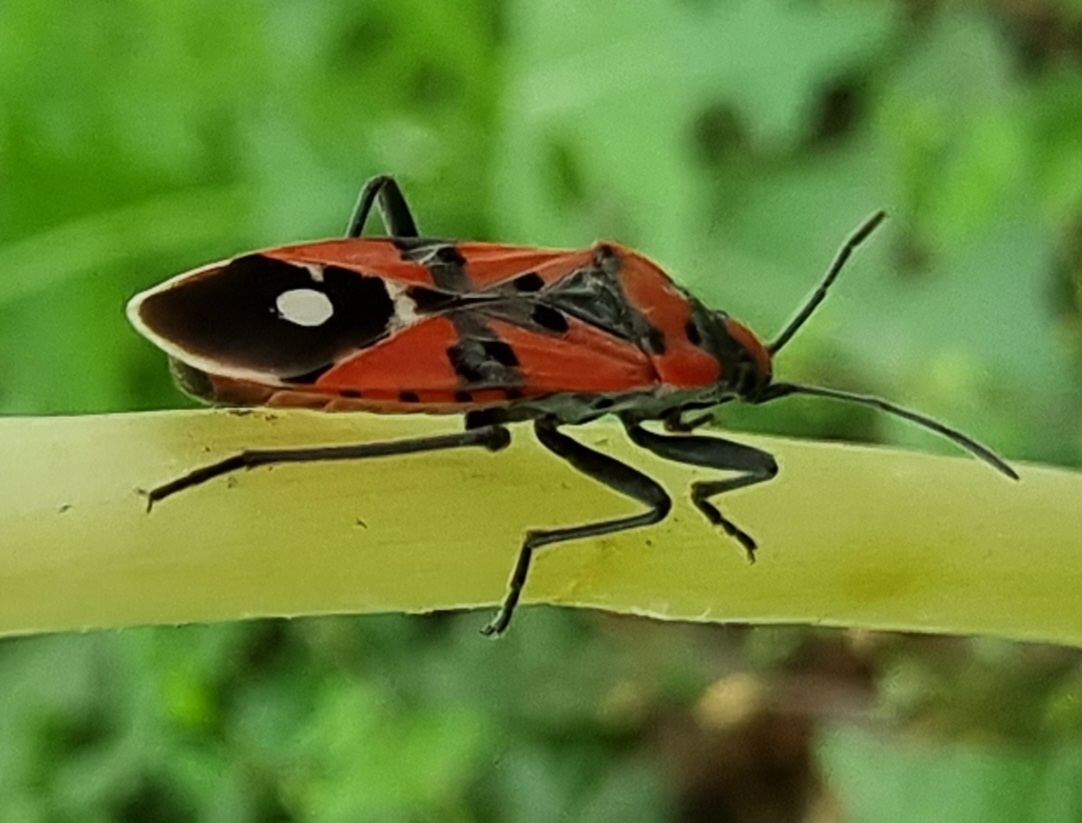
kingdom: Animalia
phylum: Arthropoda
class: Insecta
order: Hemiptera
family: Lygaeidae
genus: Lygaeus
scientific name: Lygaeus equestris
